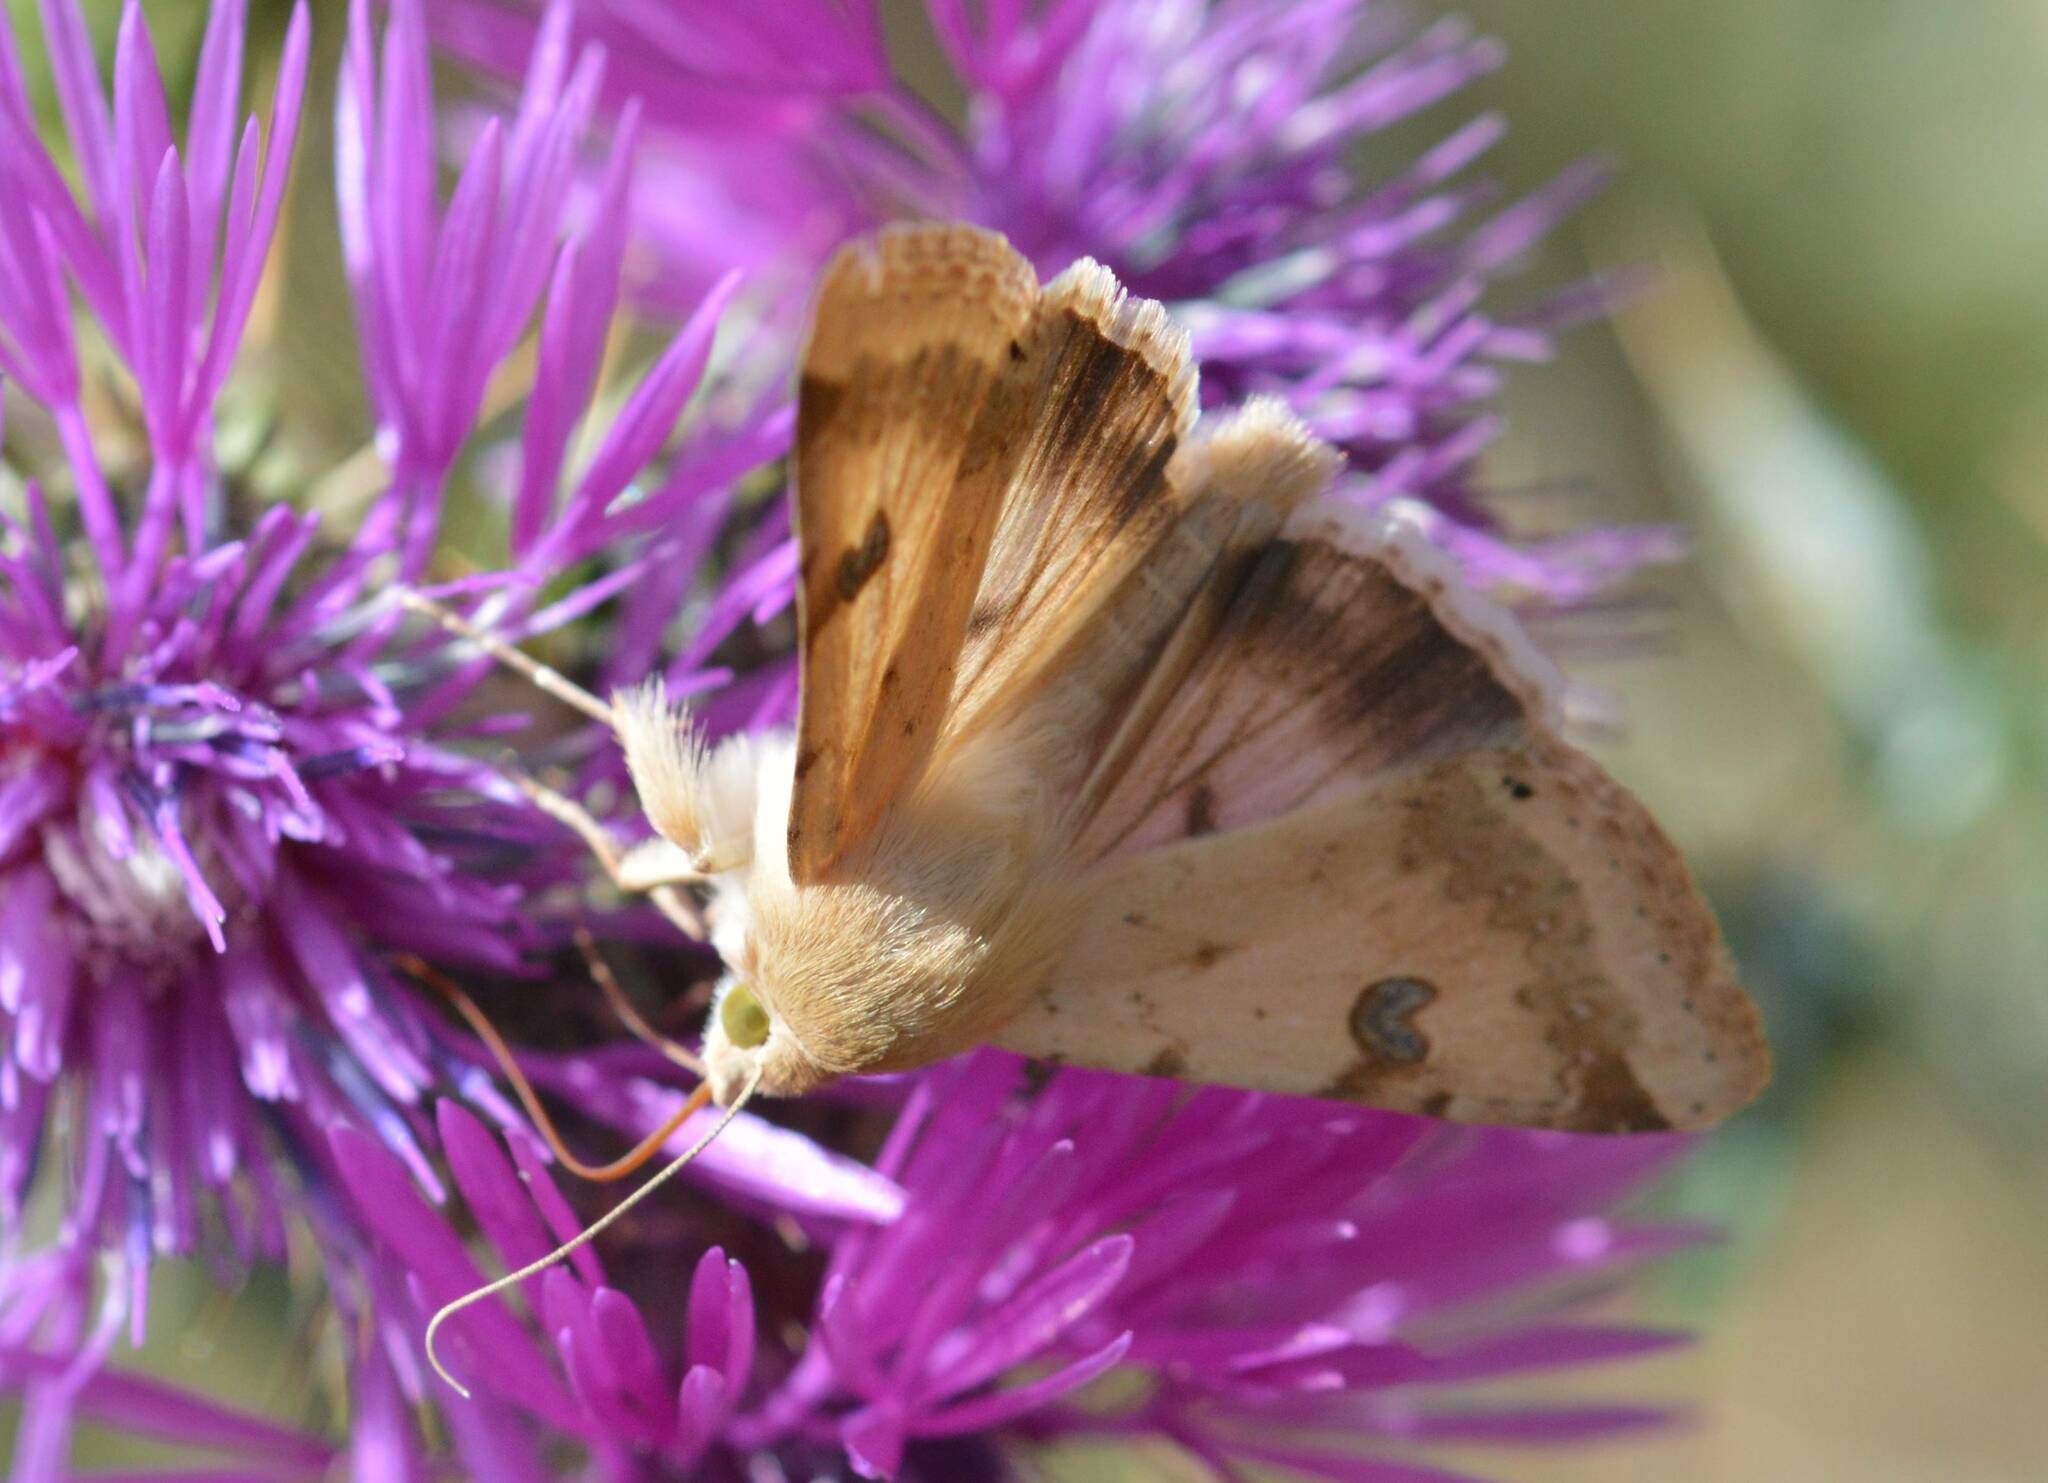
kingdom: Animalia
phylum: Arthropoda
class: Insecta
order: Lepidoptera
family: Noctuidae
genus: Heliothis
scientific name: Heliothis peltigera
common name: Bordered straw
